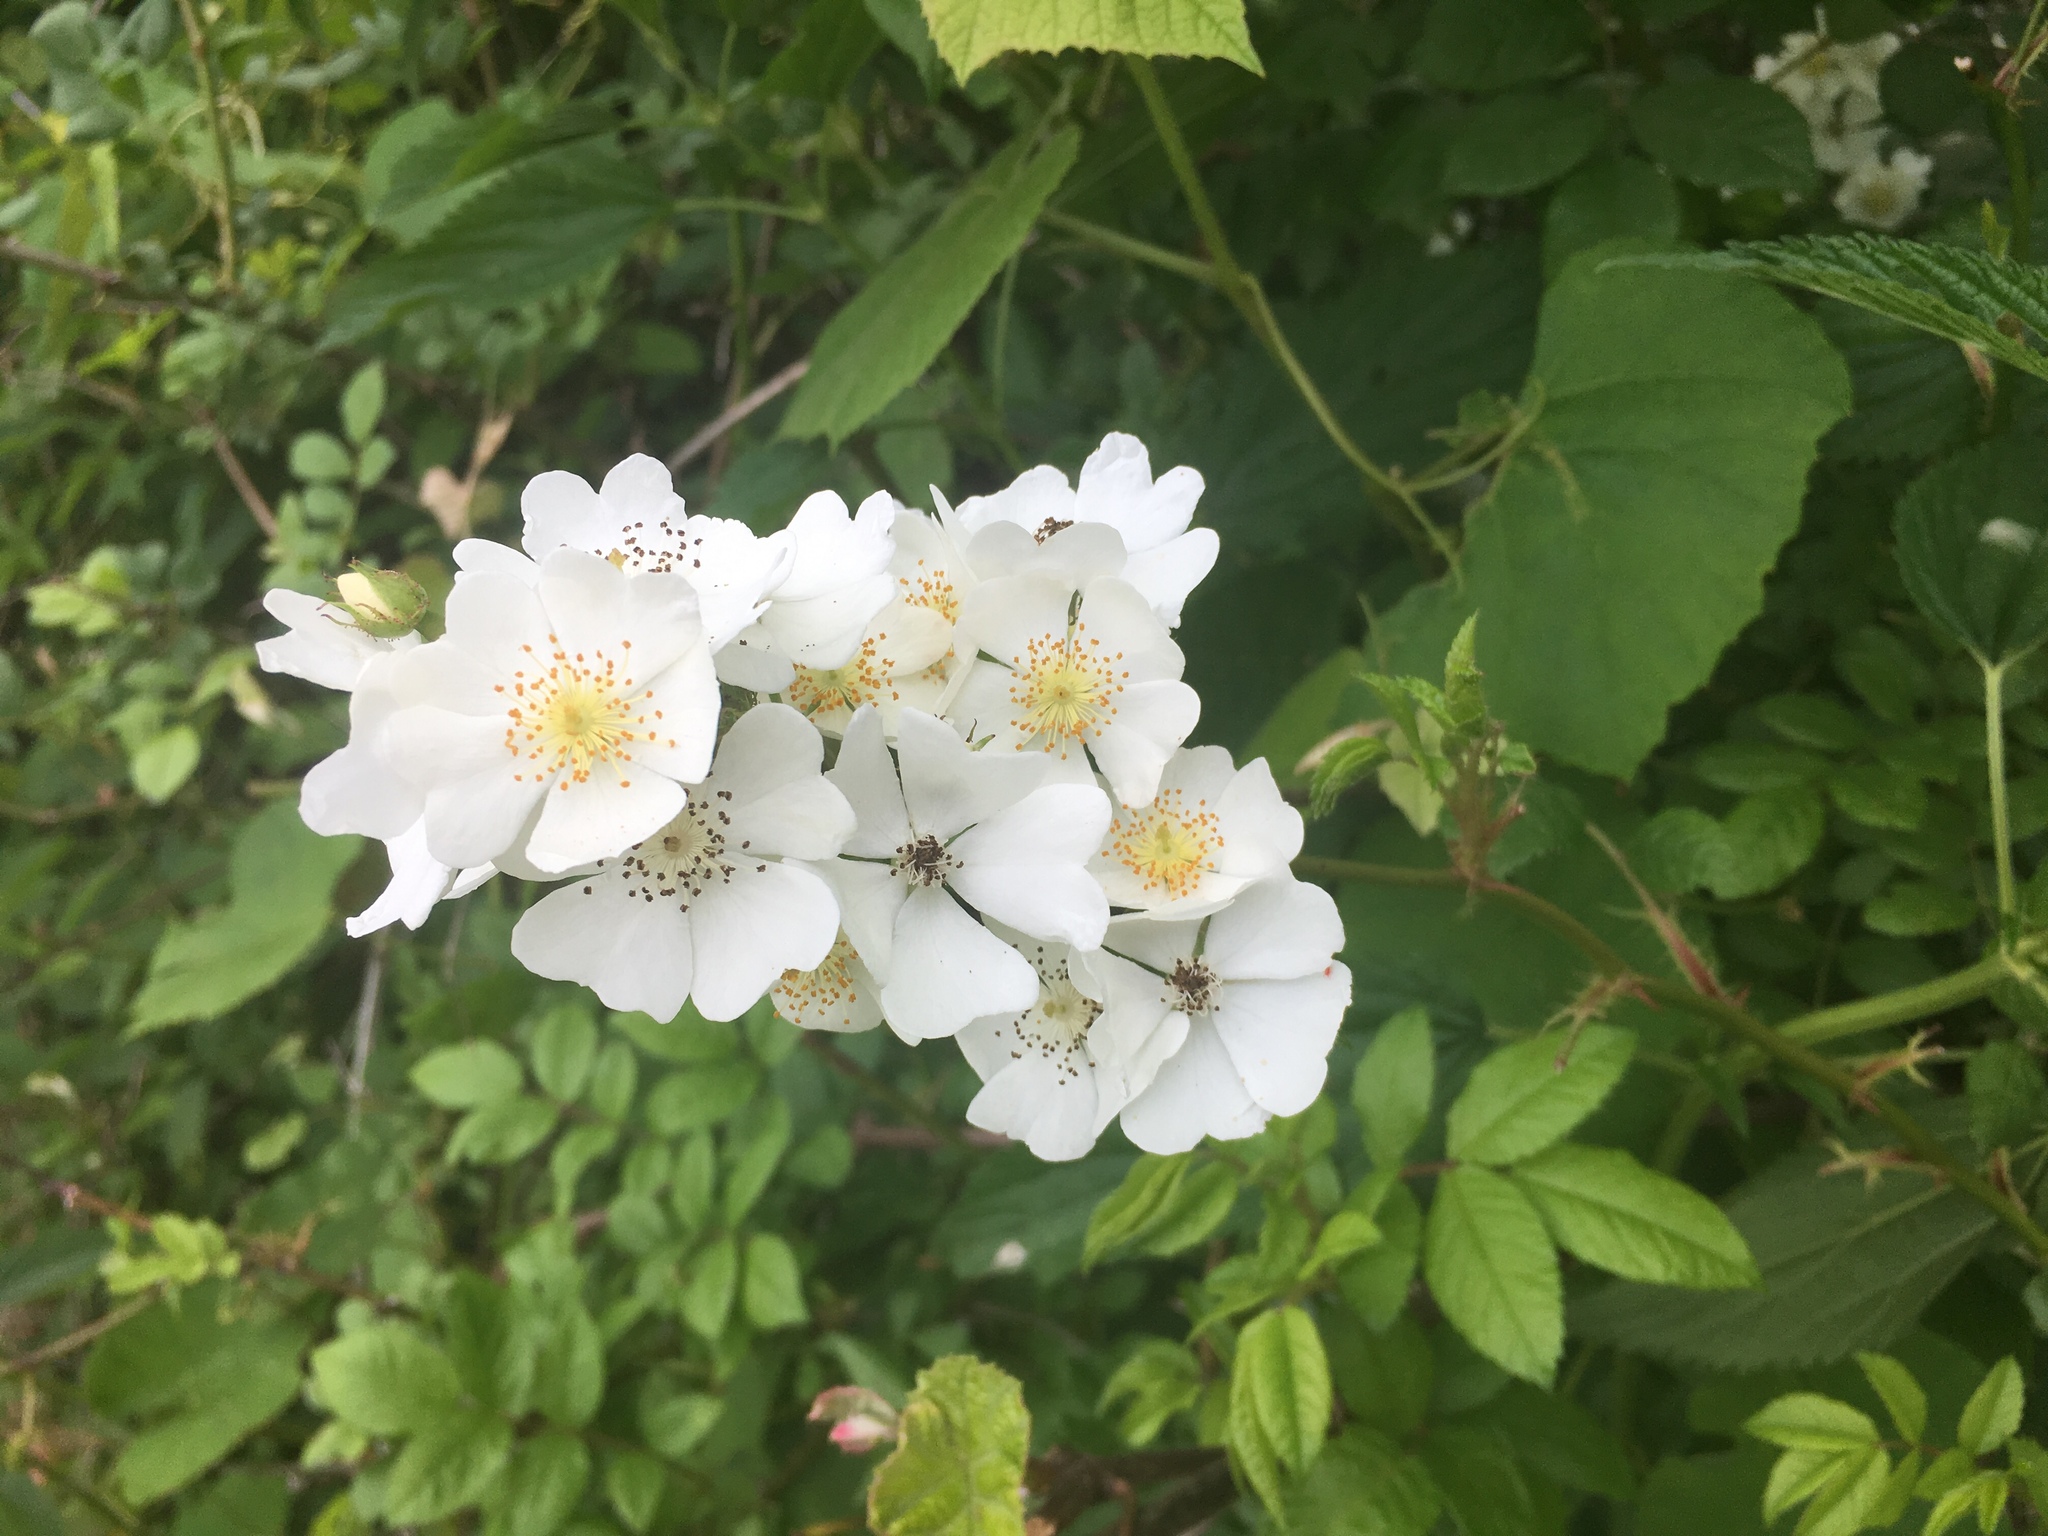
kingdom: Plantae
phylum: Tracheophyta
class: Magnoliopsida
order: Rosales
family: Rosaceae
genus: Rosa
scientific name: Rosa multiflora
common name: Multiflora rose
